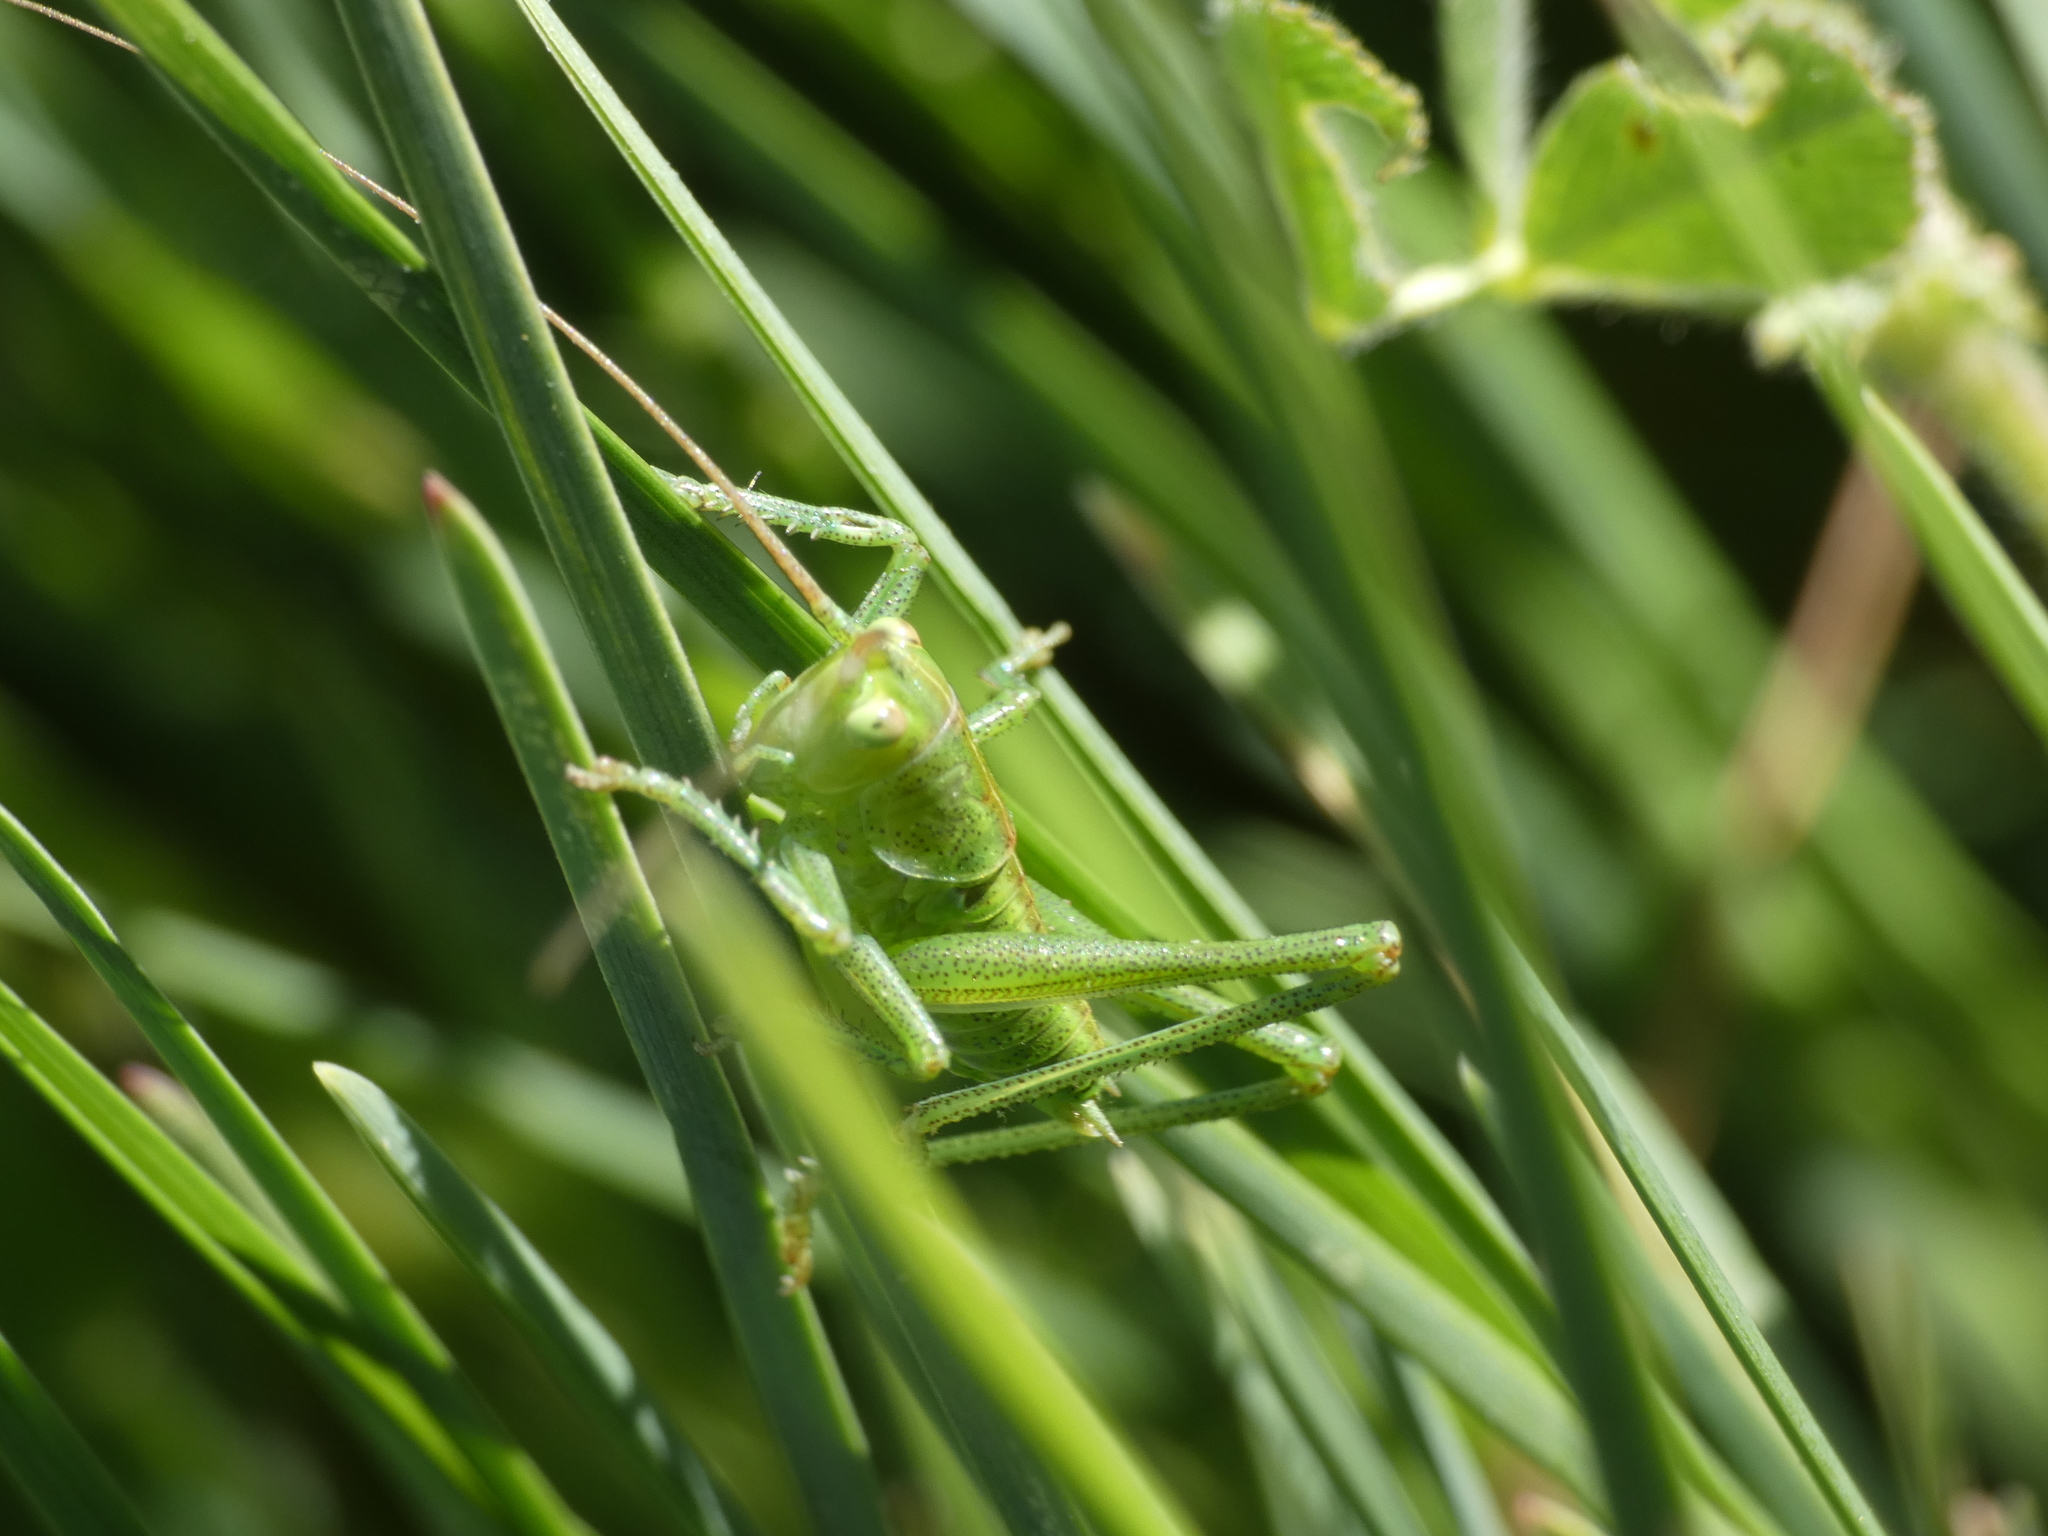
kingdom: Animalia
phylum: Arthropoda
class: Insecta
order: Orthoptera
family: Tettigoniidae
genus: Tettigonia
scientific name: Tettigonia viridissima
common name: Great green bush-cricket
